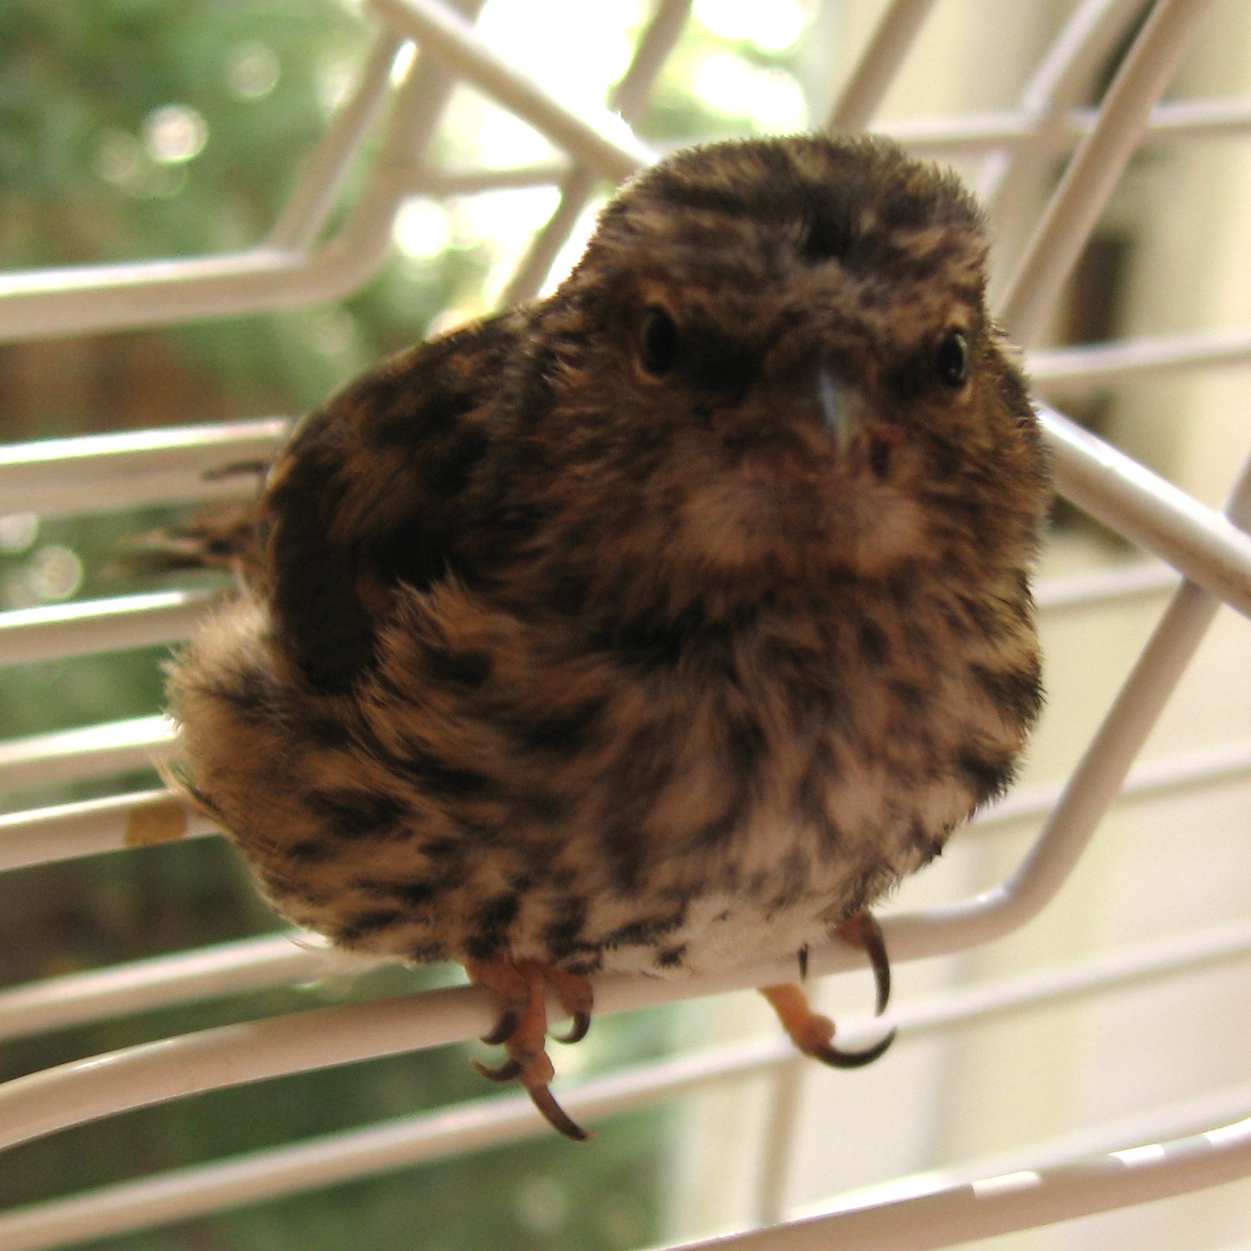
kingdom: Animalia
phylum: Chordata
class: Aves
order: Passeriformes
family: Fringillidae
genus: Acanthis
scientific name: Acanthis flammea
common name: Common redpoll
